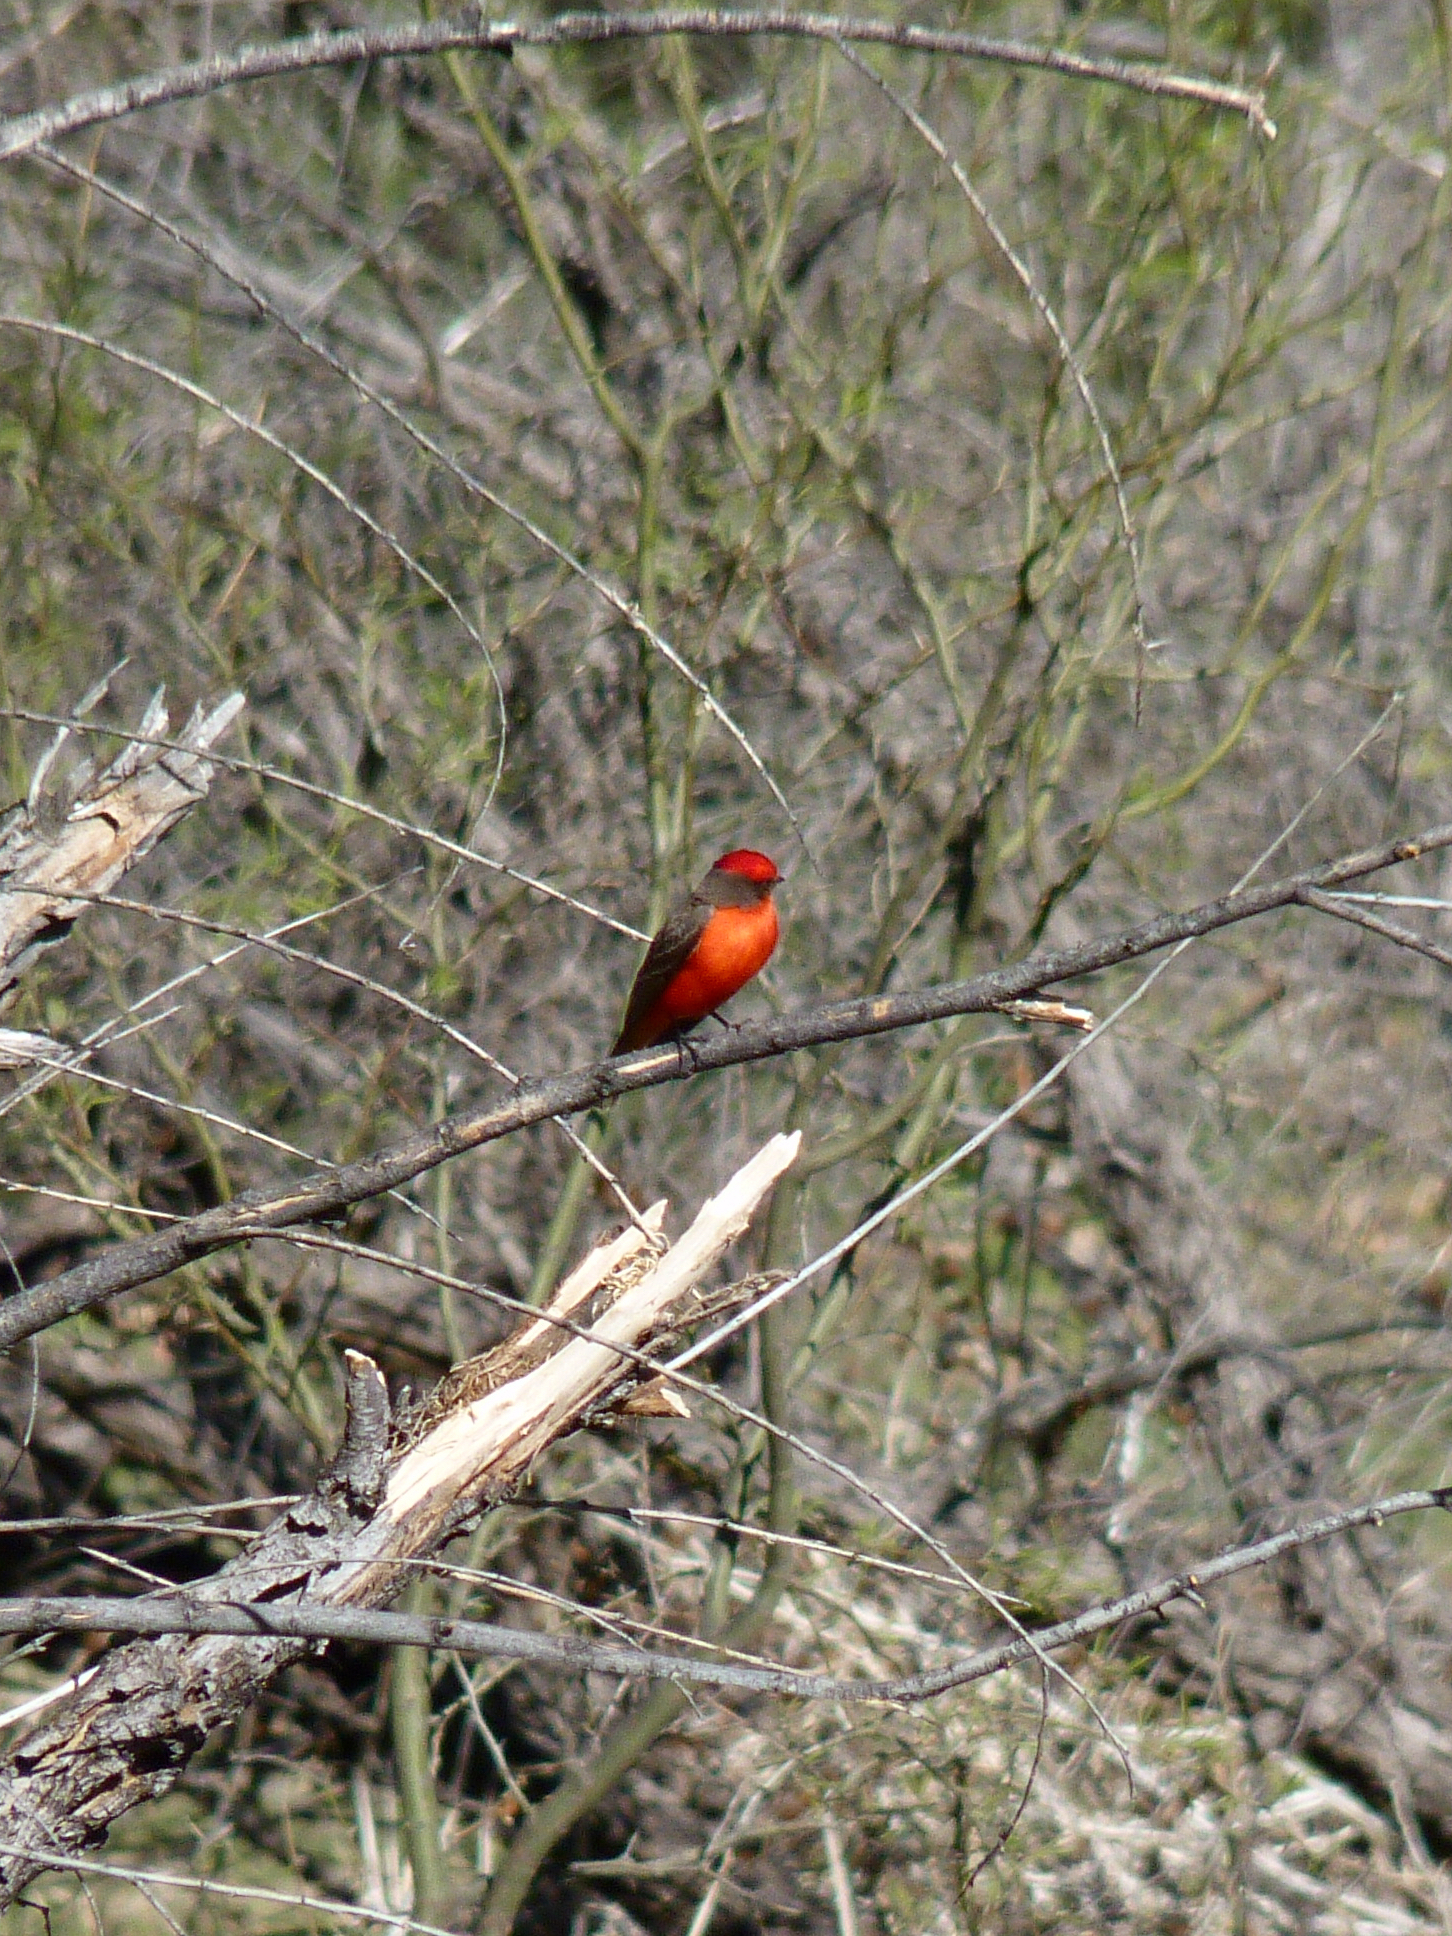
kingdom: Animalia
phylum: Chordata
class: Aves
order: Passeriformes
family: Tyrannidae
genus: Pyrocephalus
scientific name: Pyrocephalus rubinus
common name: Vermilion flycatcher
